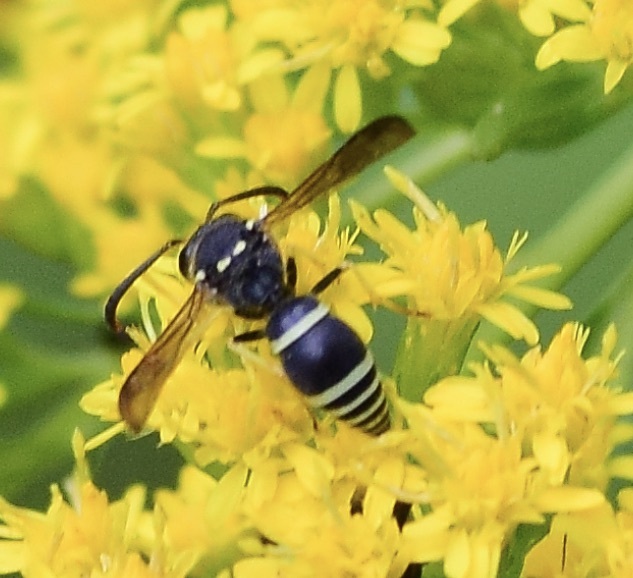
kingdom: Animalia
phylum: Arthropoda
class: Insecta
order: Hymenoptera
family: Vespidae
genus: Ancistrocerus
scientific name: Ancistrocerus
